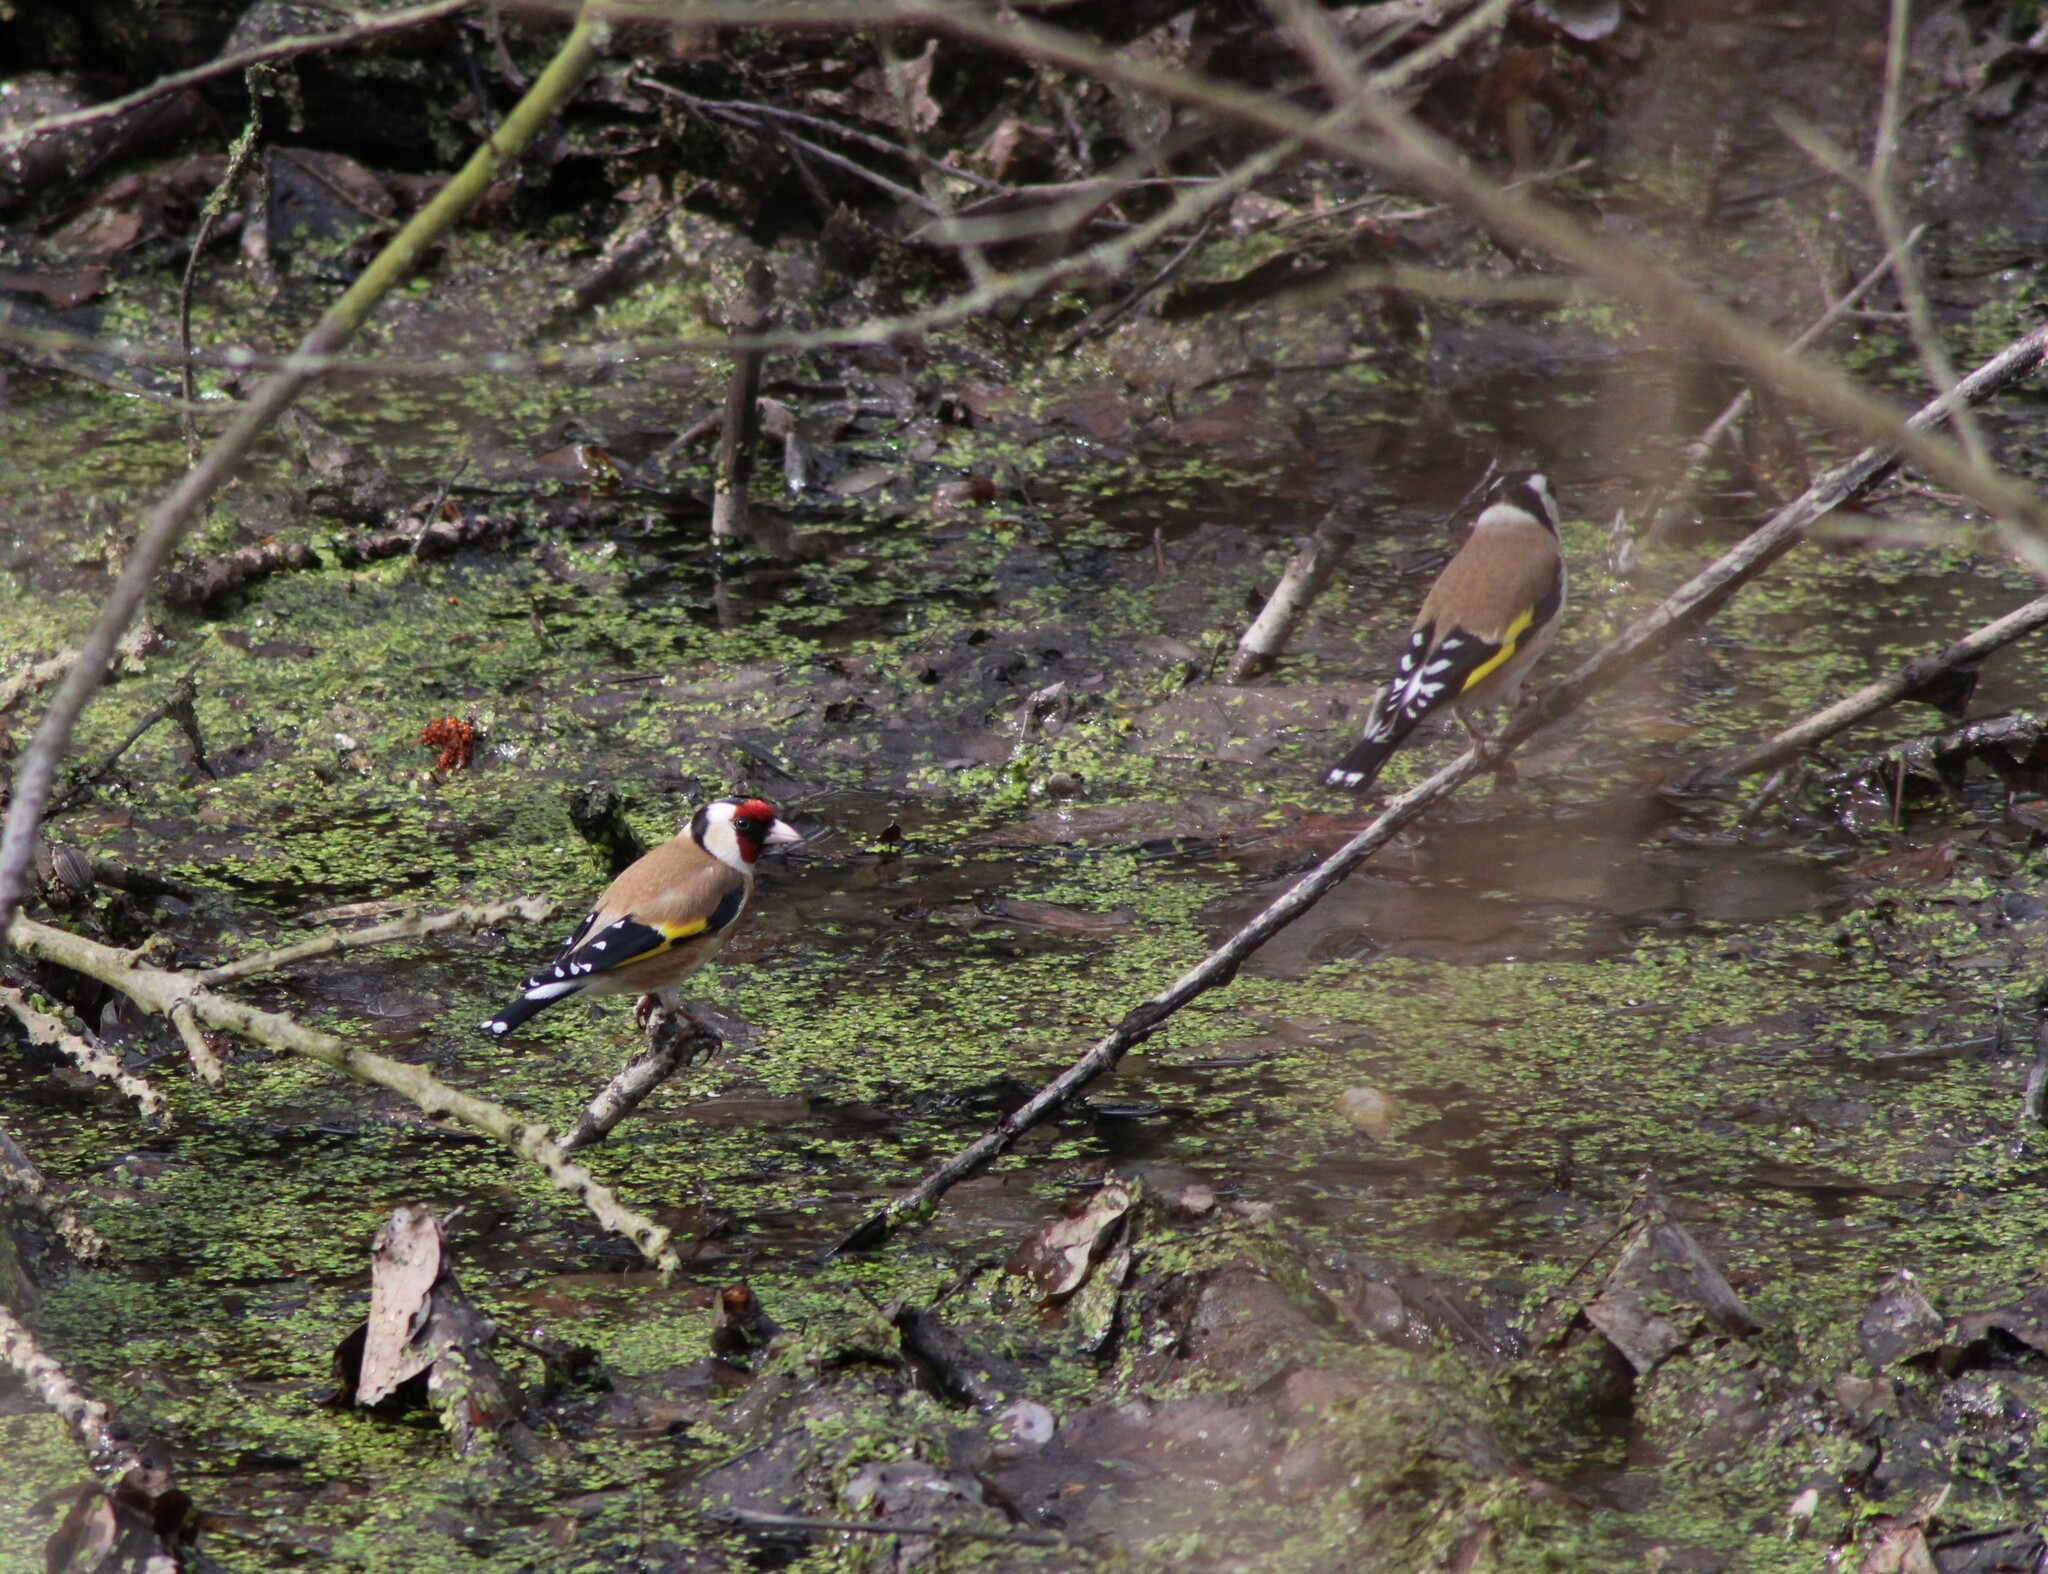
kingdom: Animalia
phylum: Chordata
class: Aves
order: Passeriformes
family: Fringillidae
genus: Carduelis
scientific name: Carduelis carduelis
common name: European goldfinch
